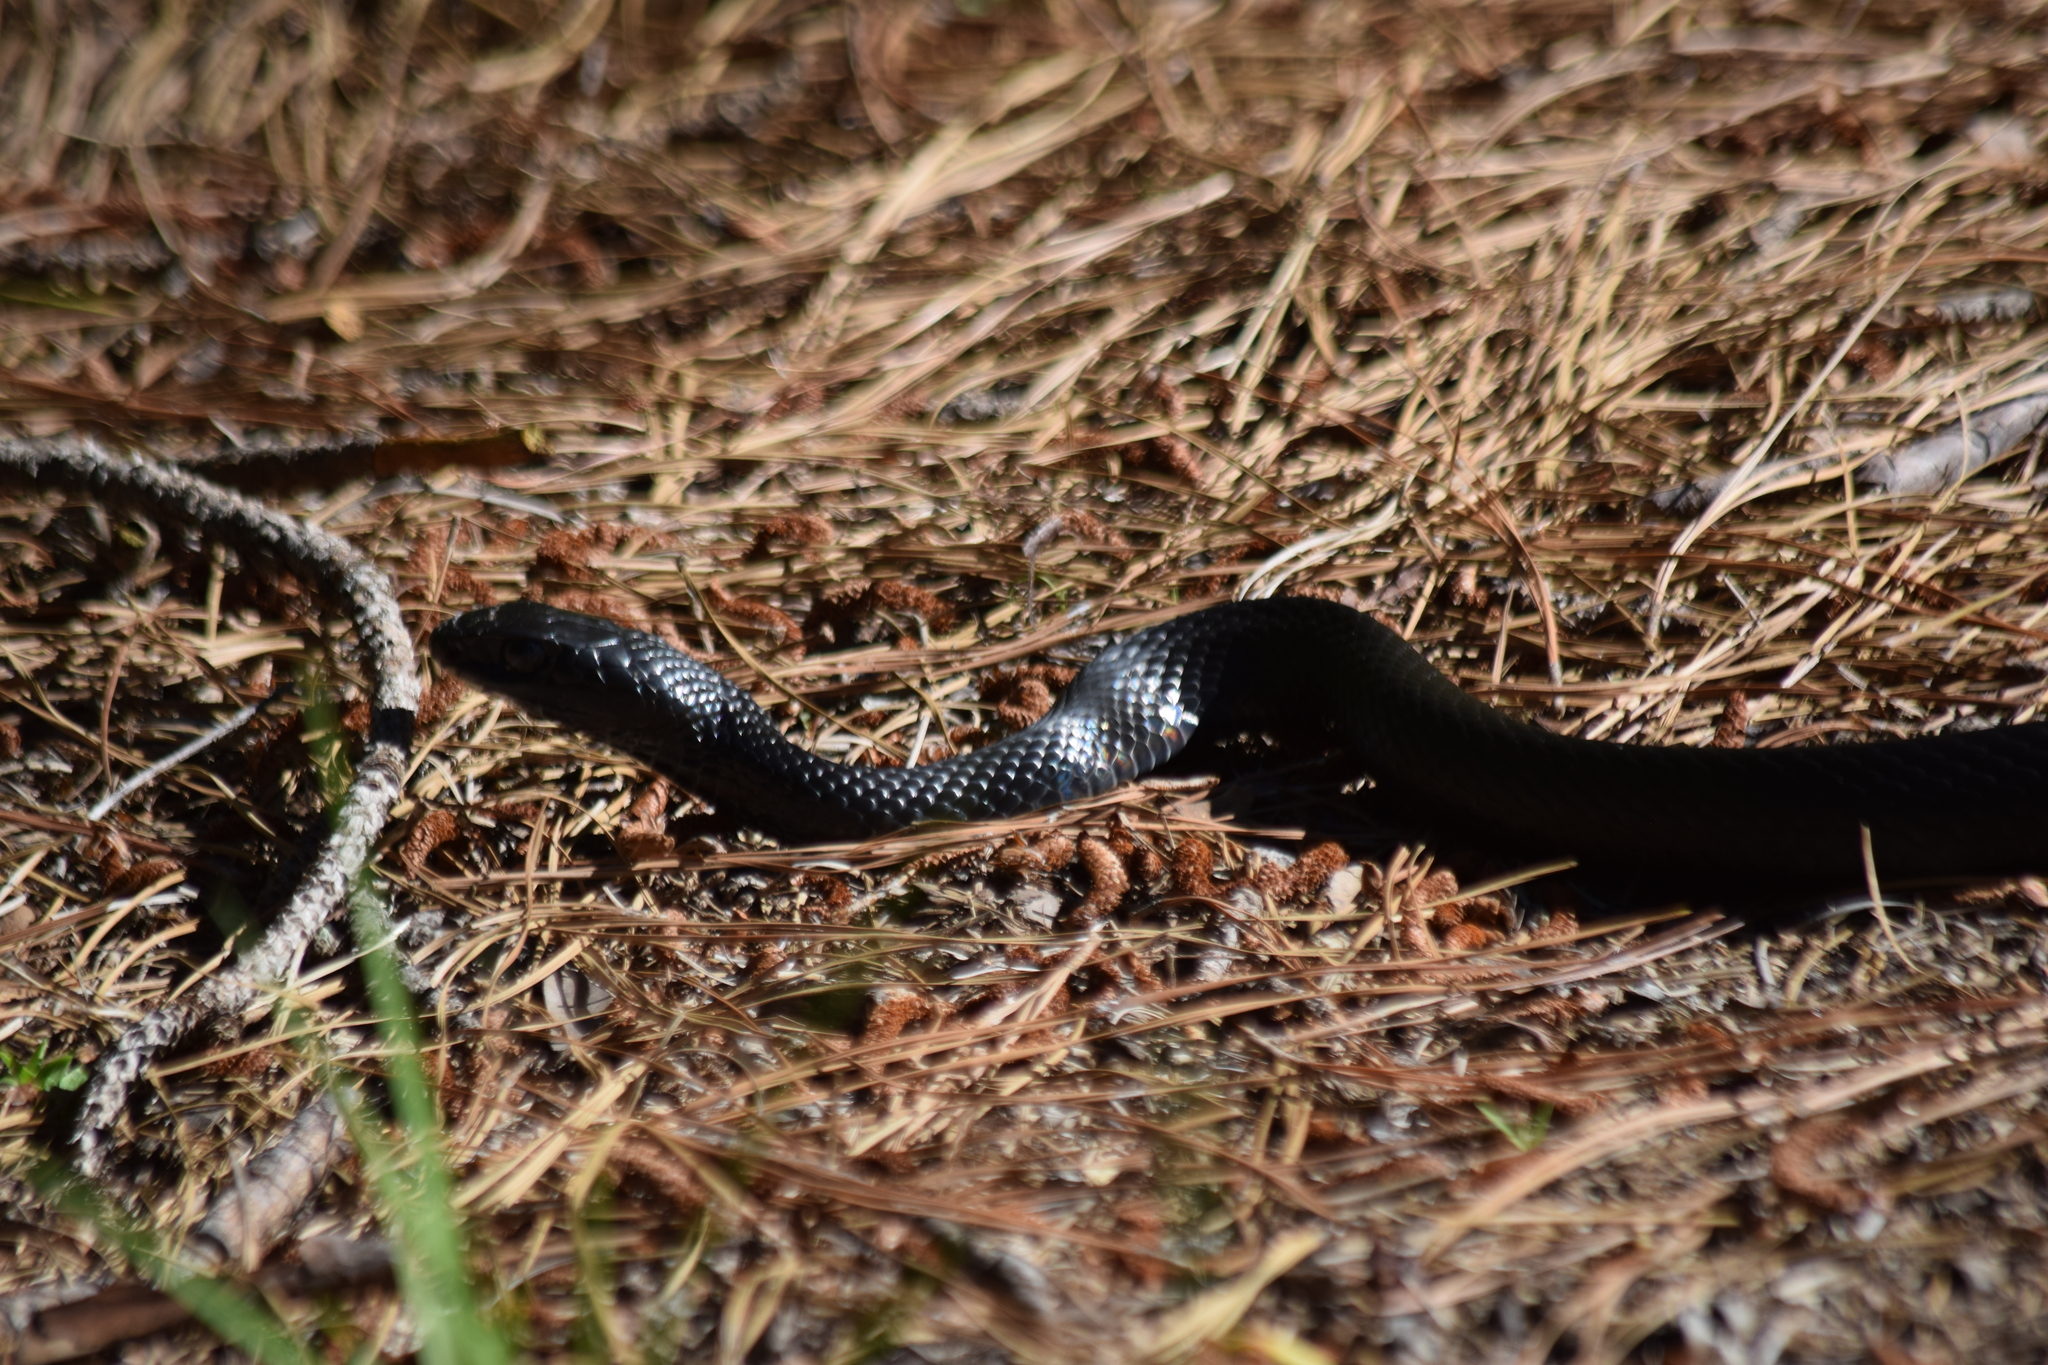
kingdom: Animalia
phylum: Chordata
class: Squamata
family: Colubridae
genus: Coluber
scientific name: Coluber constrictor
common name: Eastern racer
